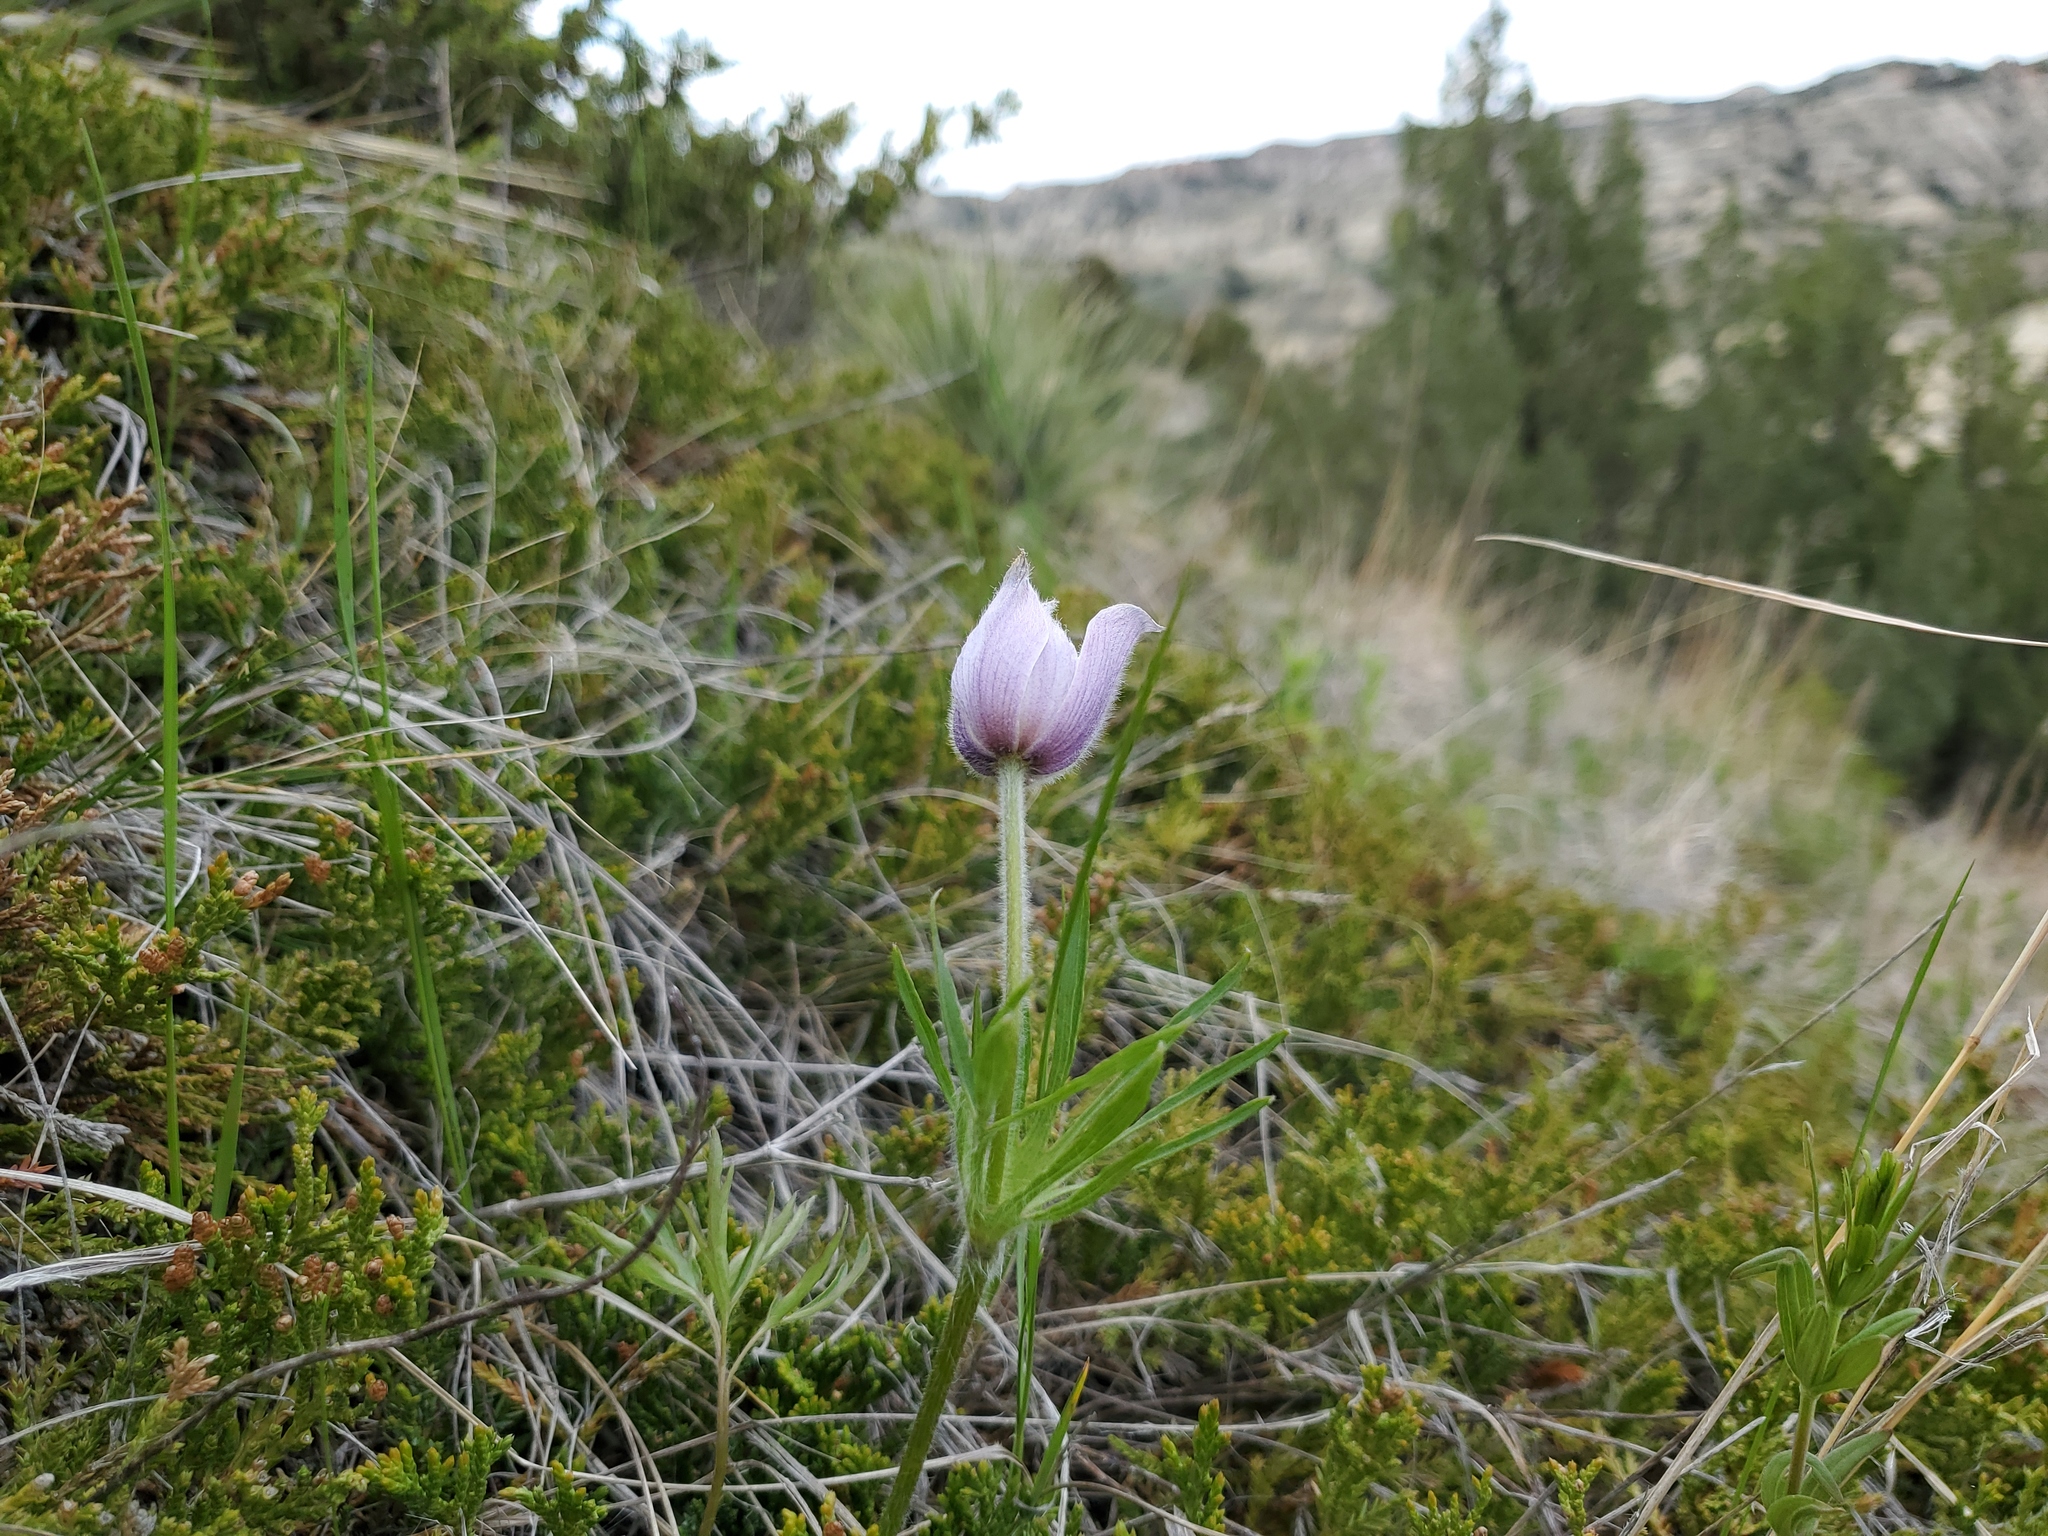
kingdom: Plantae
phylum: Tracheophyta
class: Magnoliopsida
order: Ranunculales
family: Ranunculaceae
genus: Pulsatilla
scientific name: Pulsatilla nuttalliana
